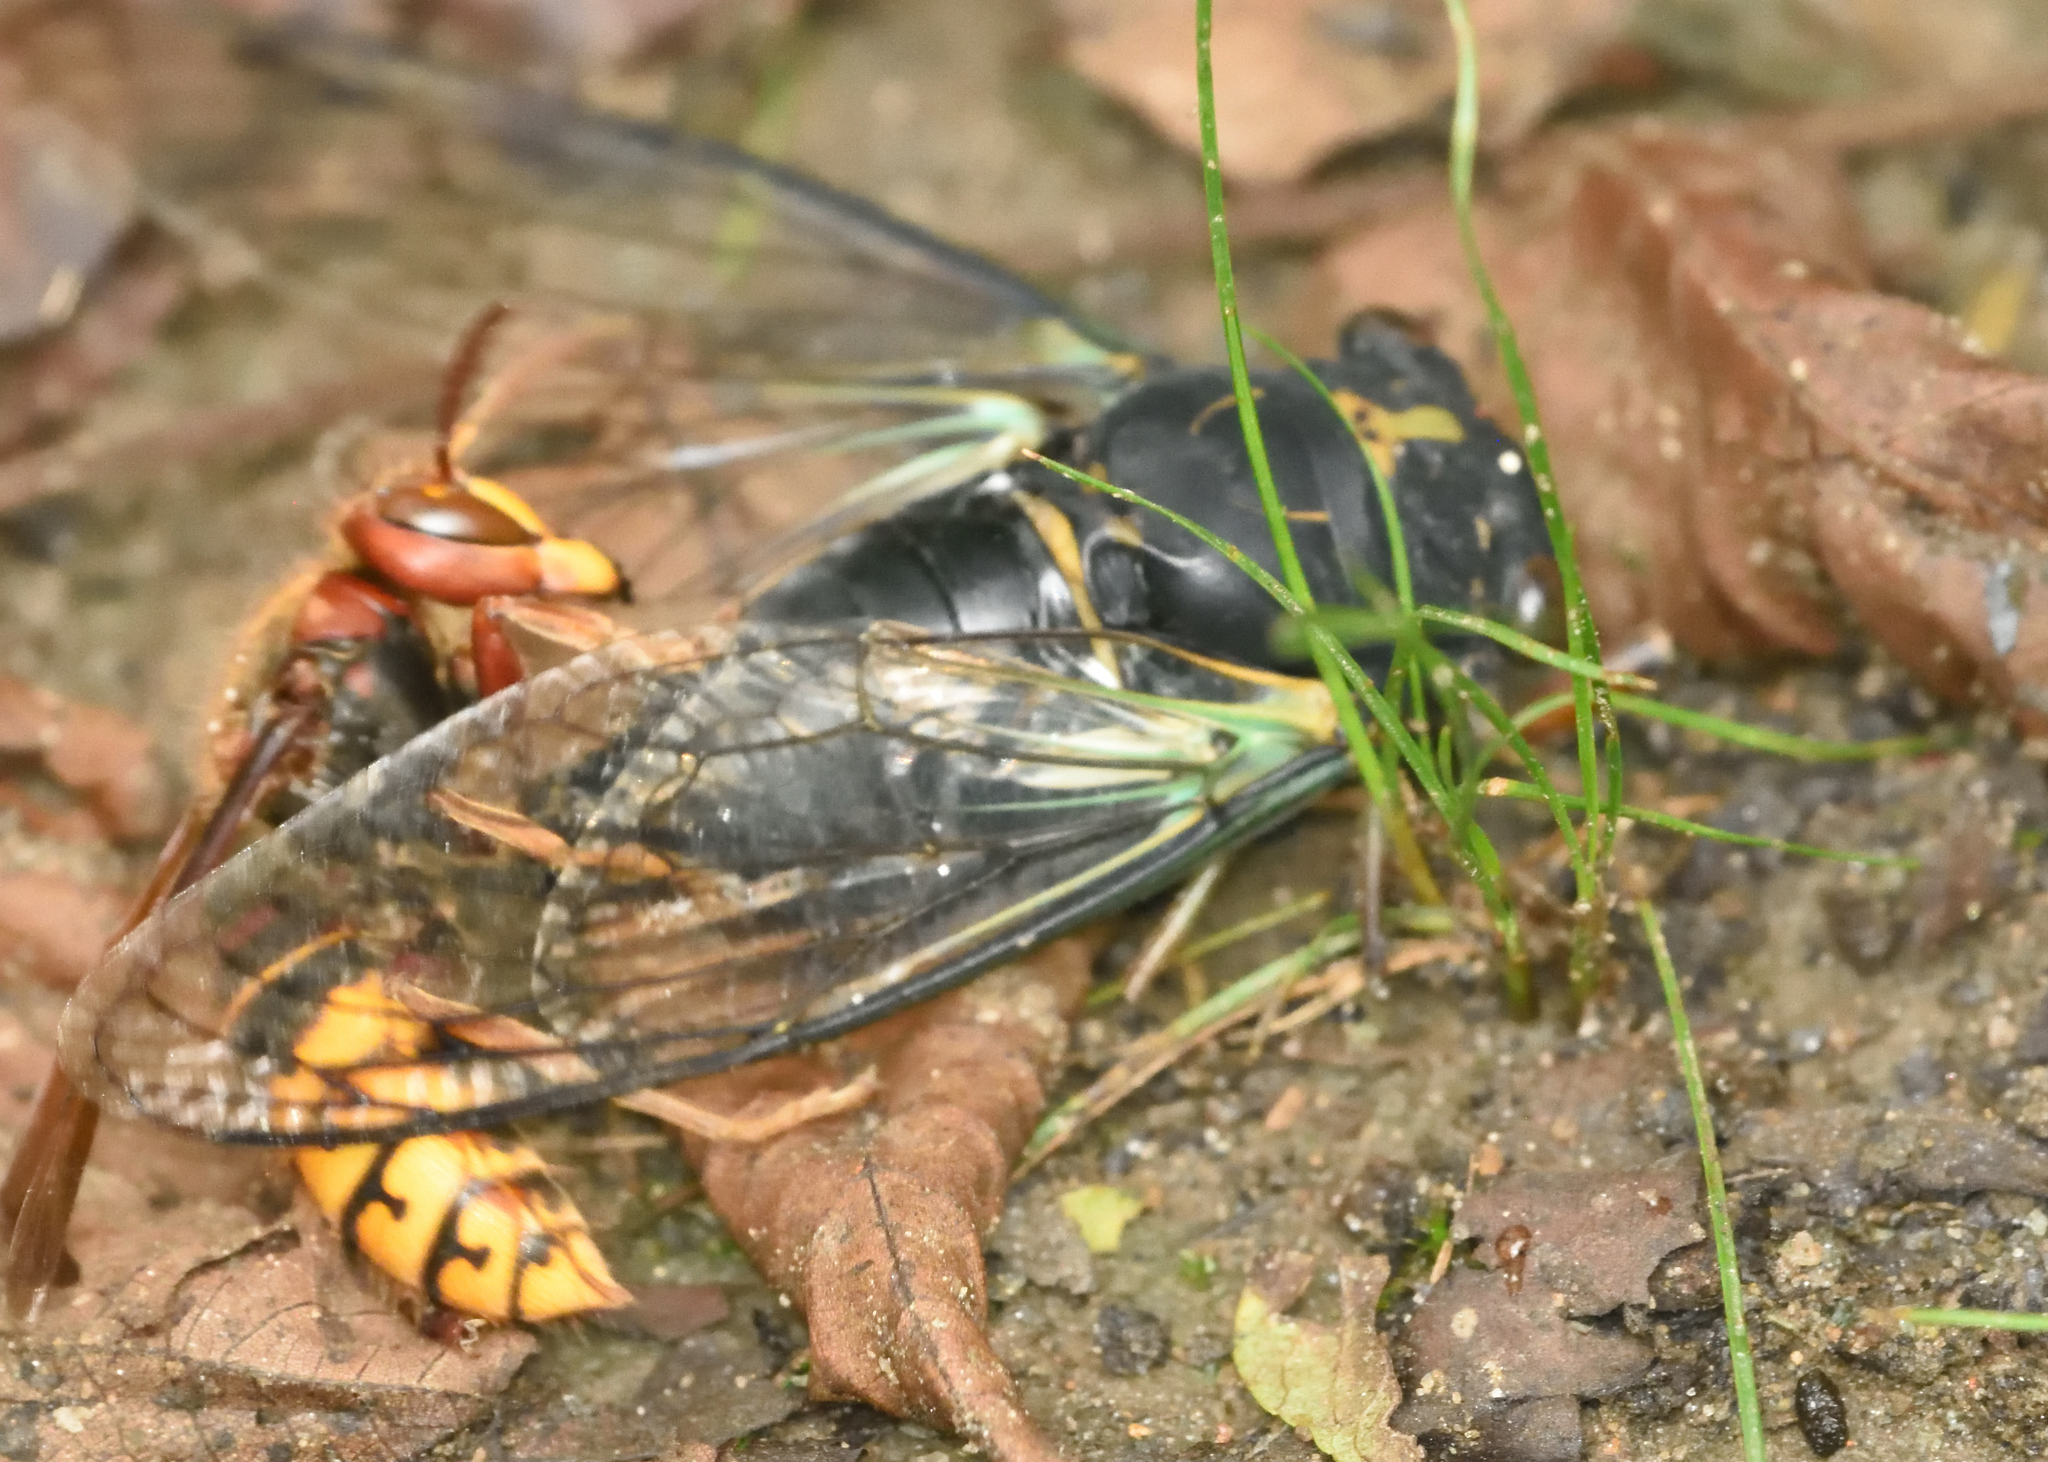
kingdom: Animalia
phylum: Arthropoda
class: Insecta
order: Hemiptera
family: Cicadidae
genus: Neotibicen
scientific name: Neotibicen lyricen
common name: Lyric cicada
